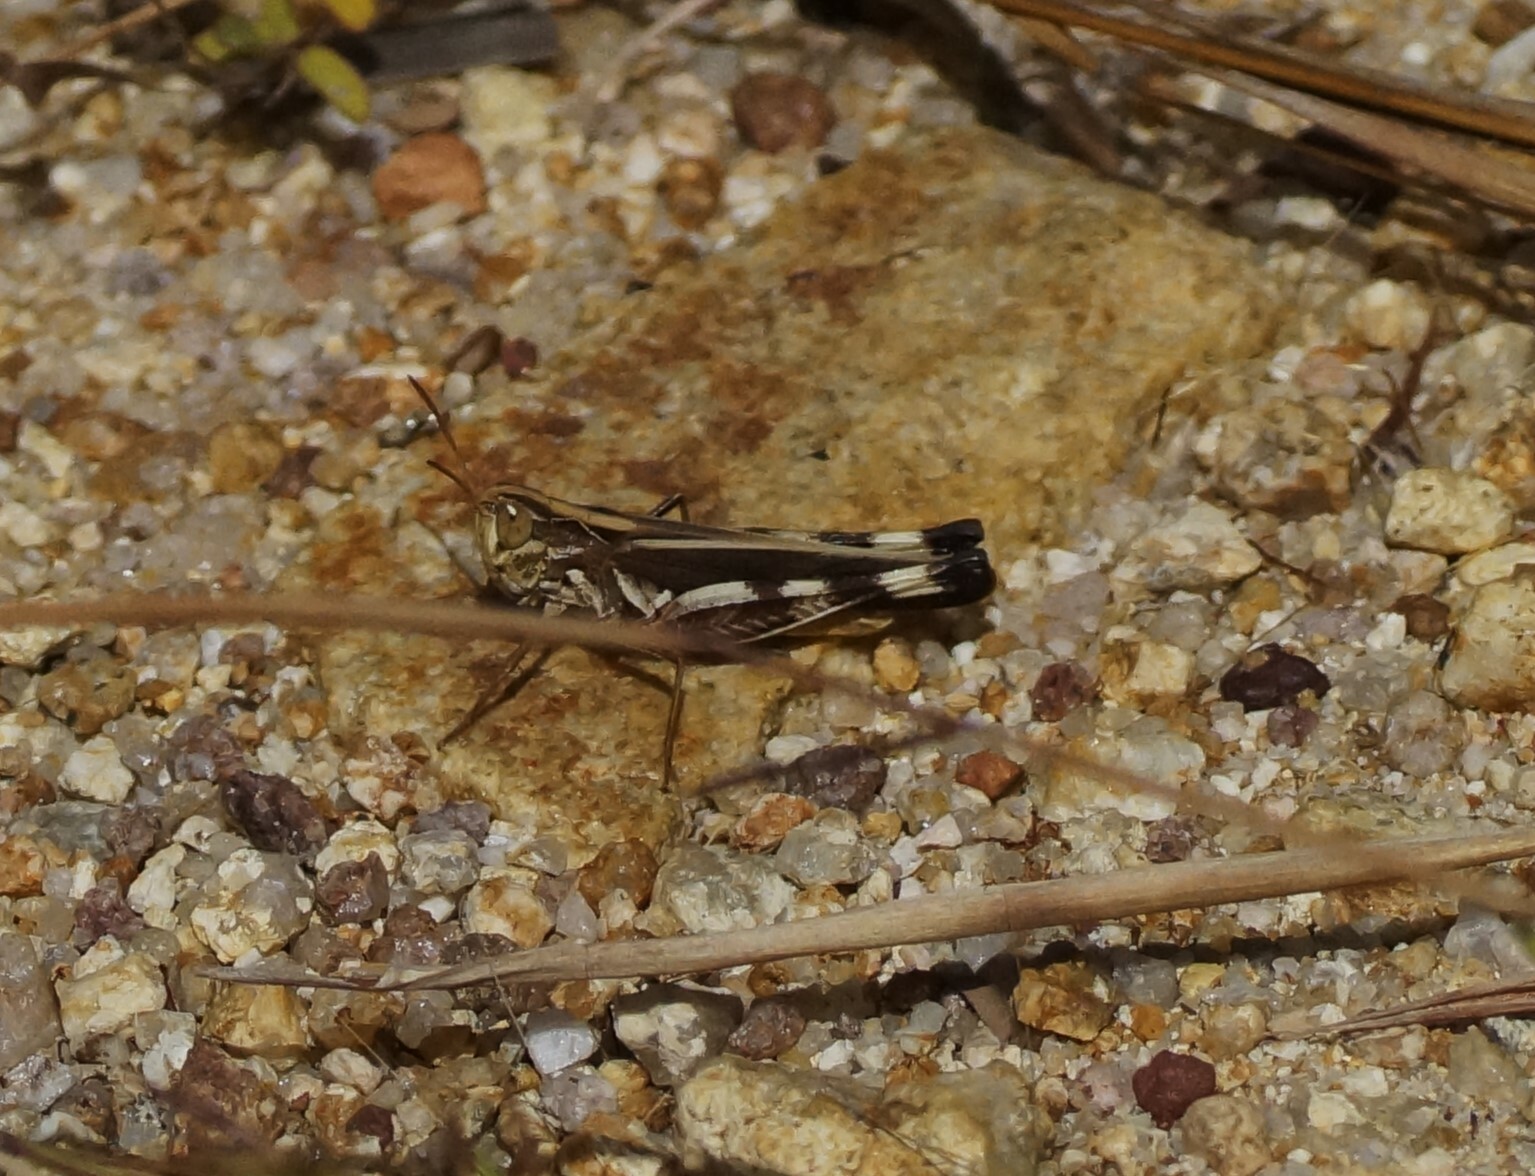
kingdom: Animalia
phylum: Arthropoda
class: Insecta
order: Orthoptera
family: Acrididae
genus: Caledia
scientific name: Caledia captiva
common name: Caledia
